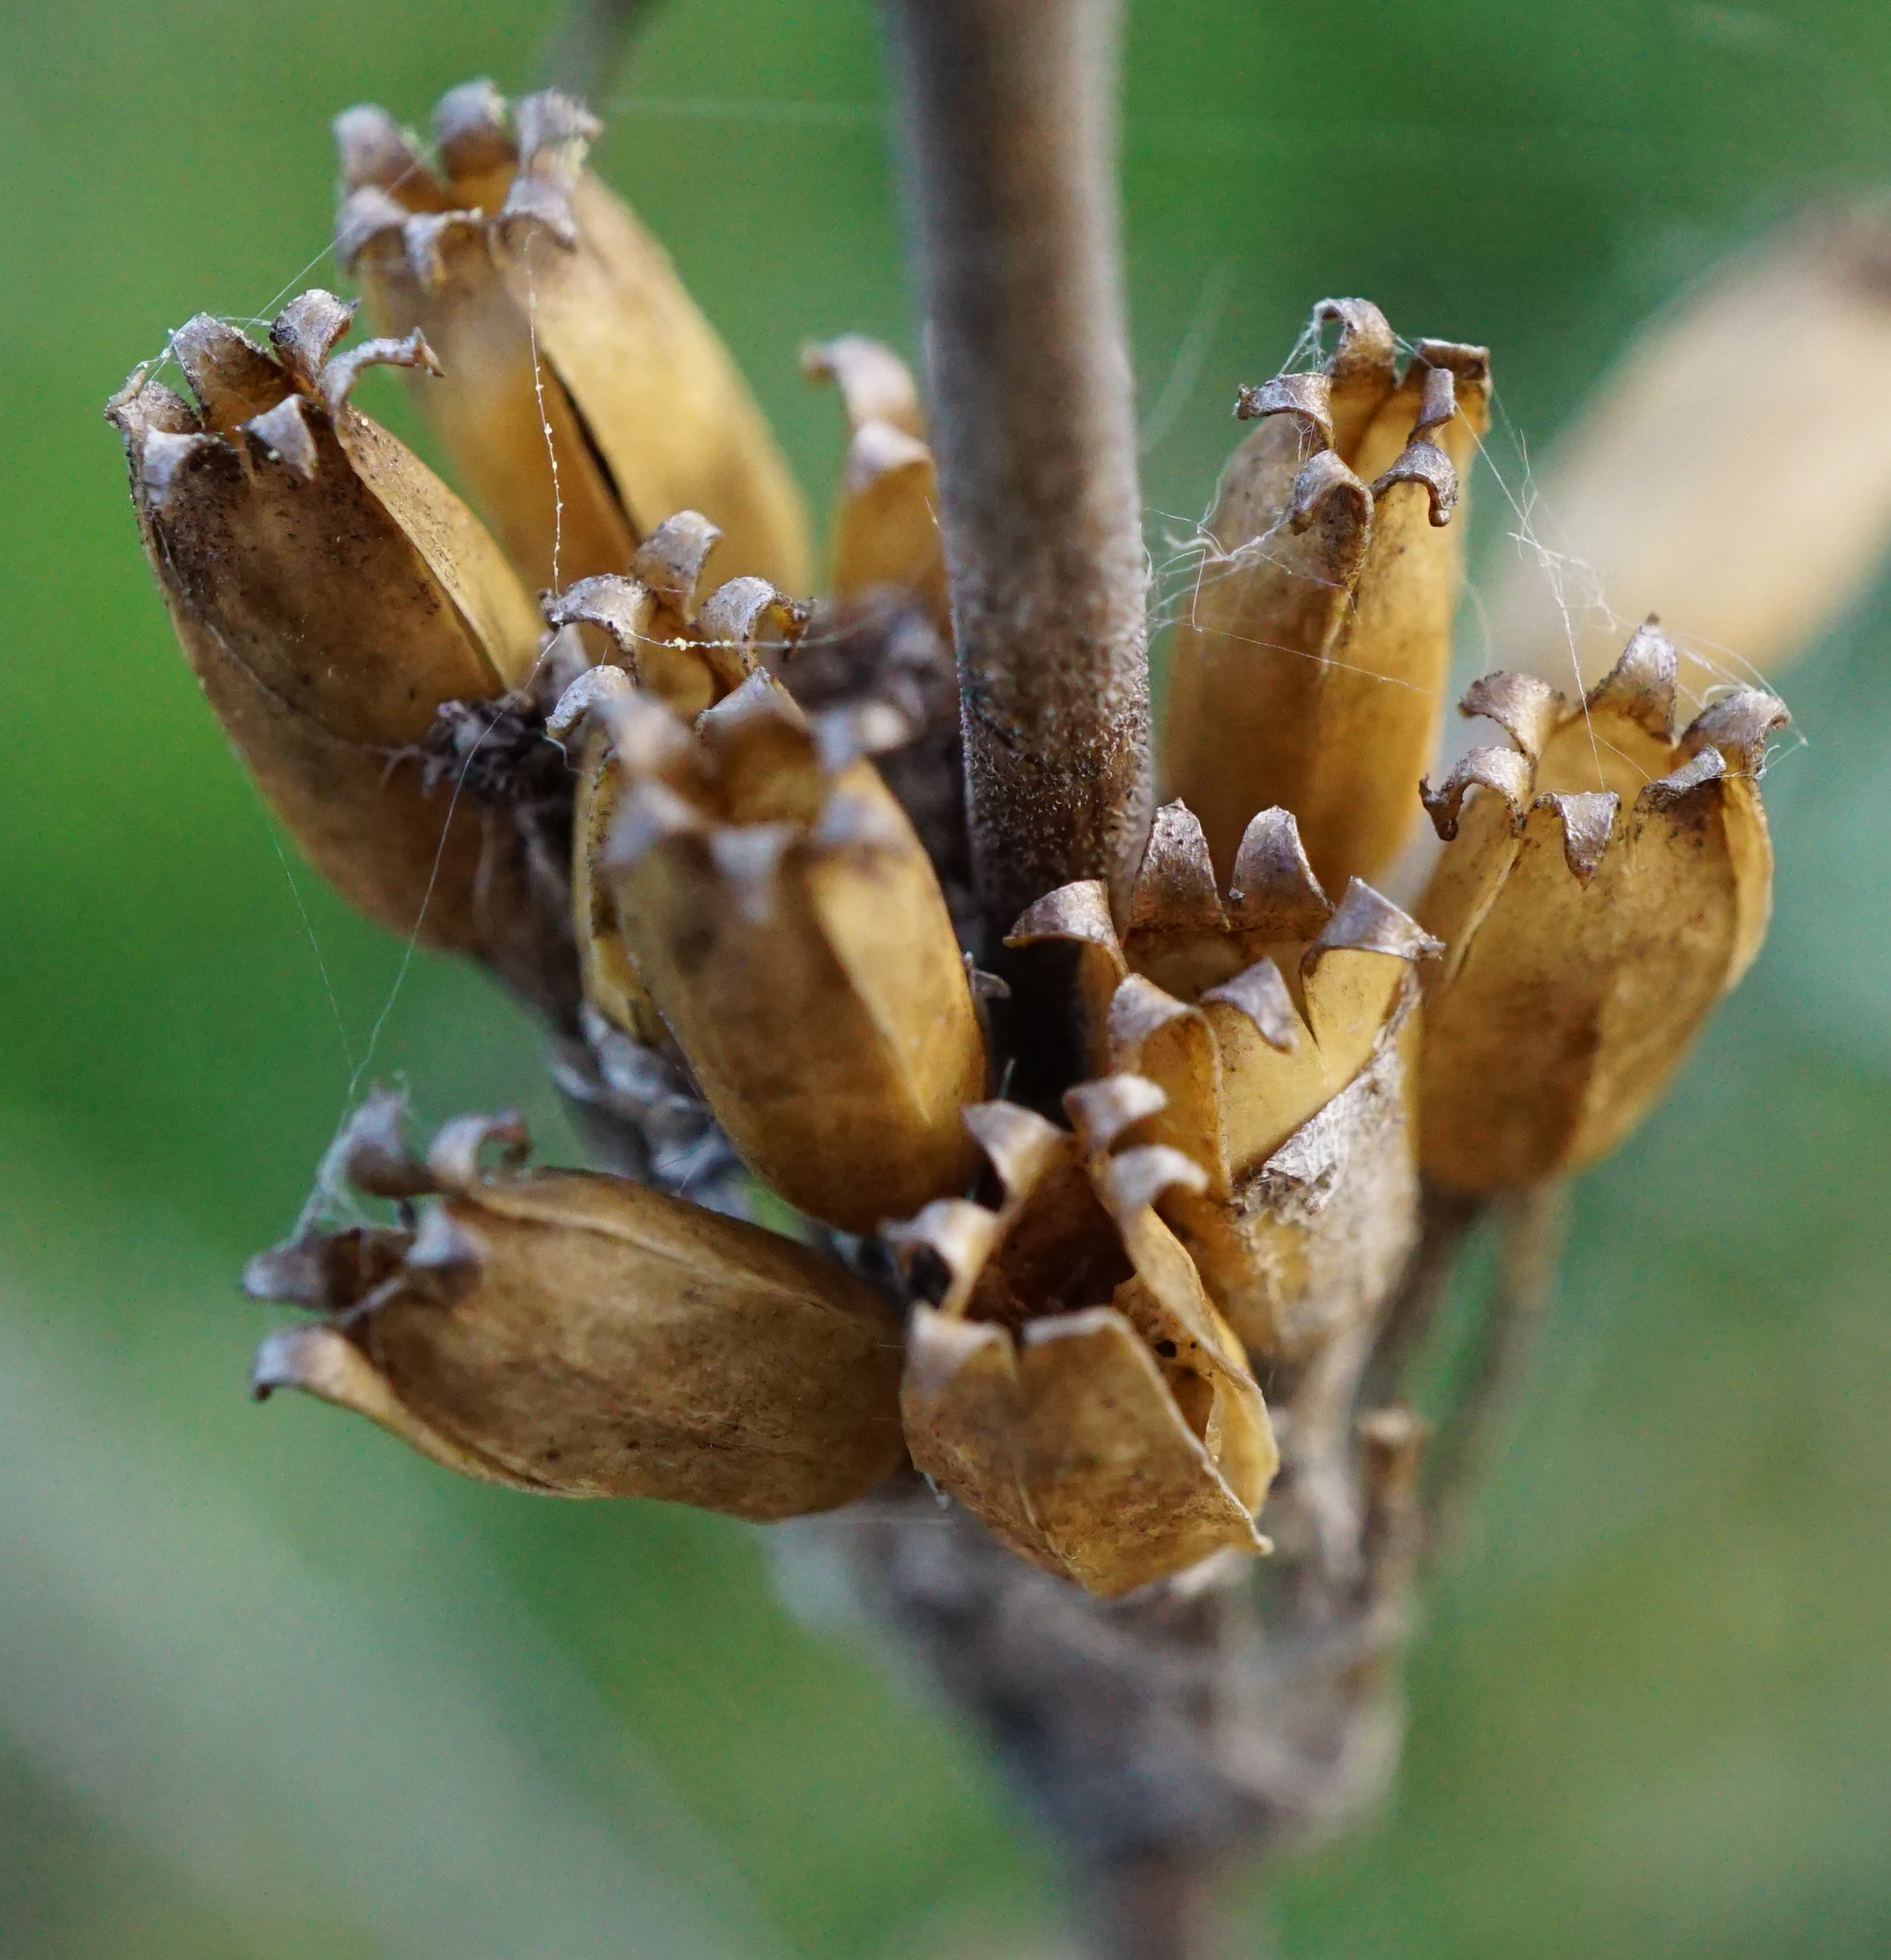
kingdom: Plantae
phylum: Tracheophyta
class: Magnoliopsida
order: Caryophyllales
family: Caryophyllaceae
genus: Silene
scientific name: Silene multiflora
